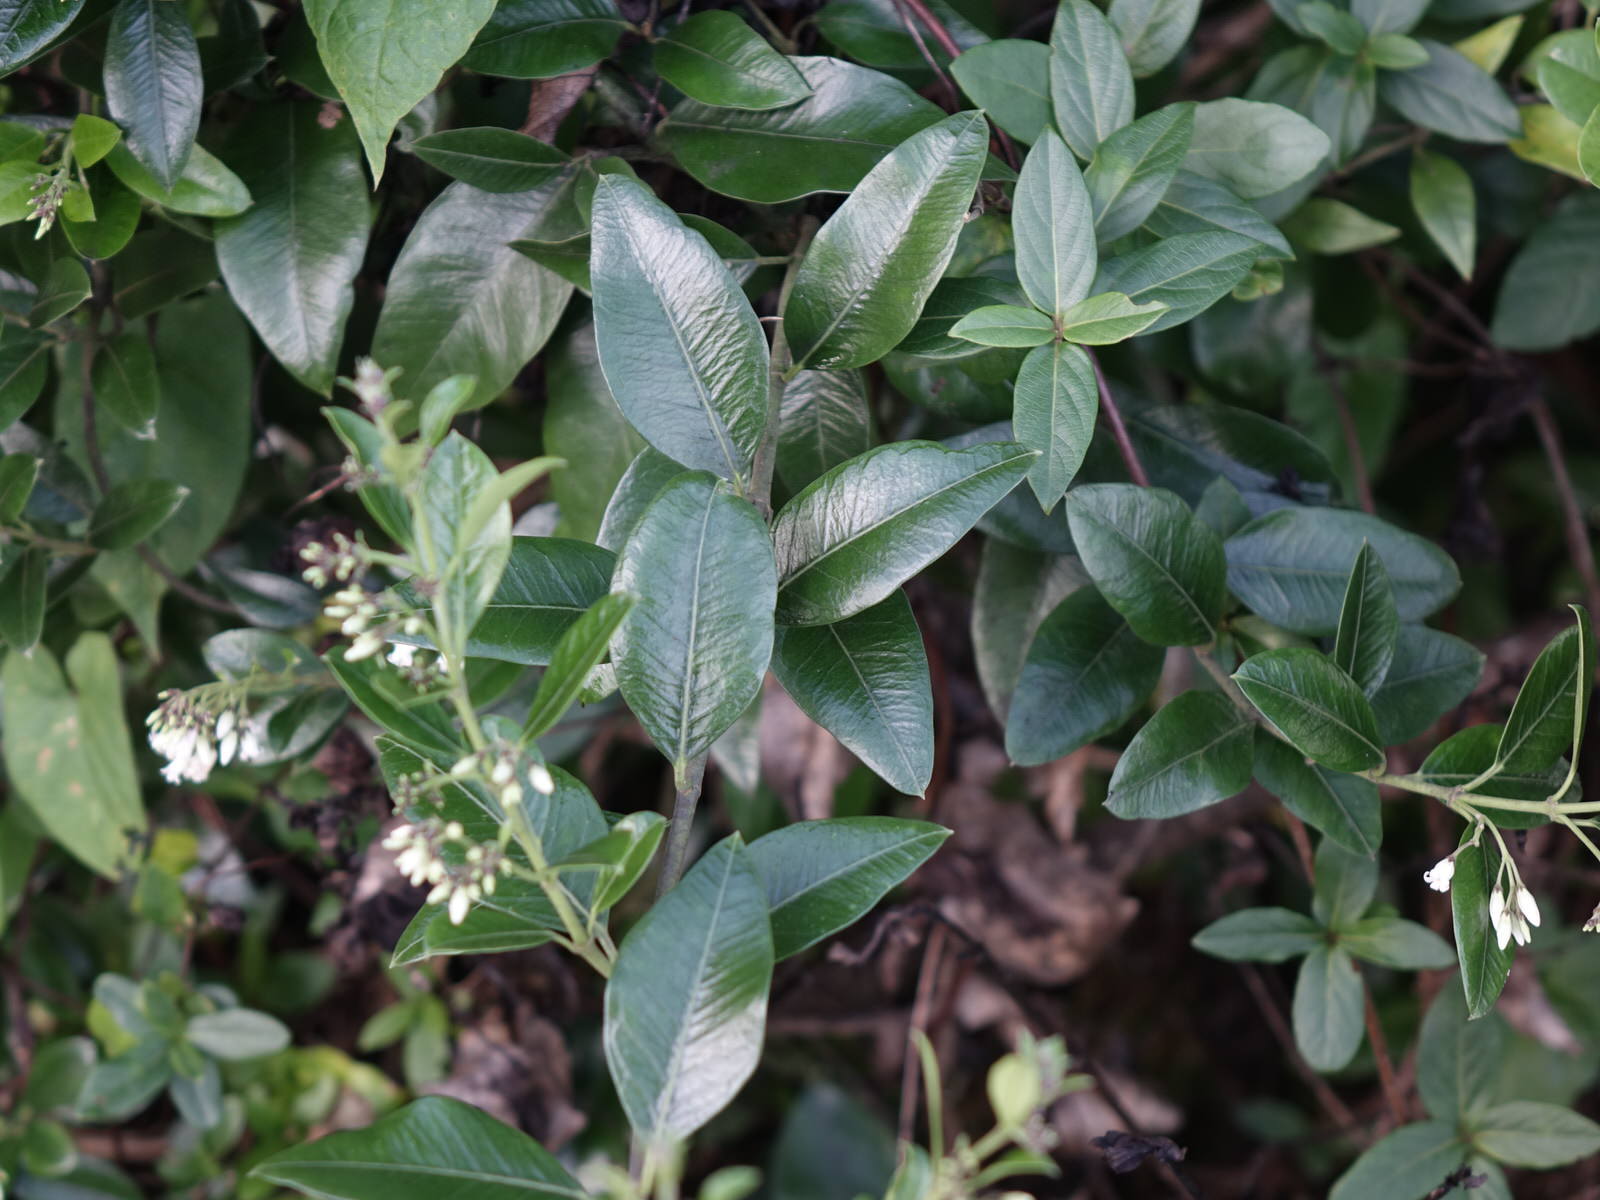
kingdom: Plantae
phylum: Tracheophyta
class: Magnoliopsida
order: Gentianales
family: Apocynaceae
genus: Parsonsia
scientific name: Parsonsia heterophylla
